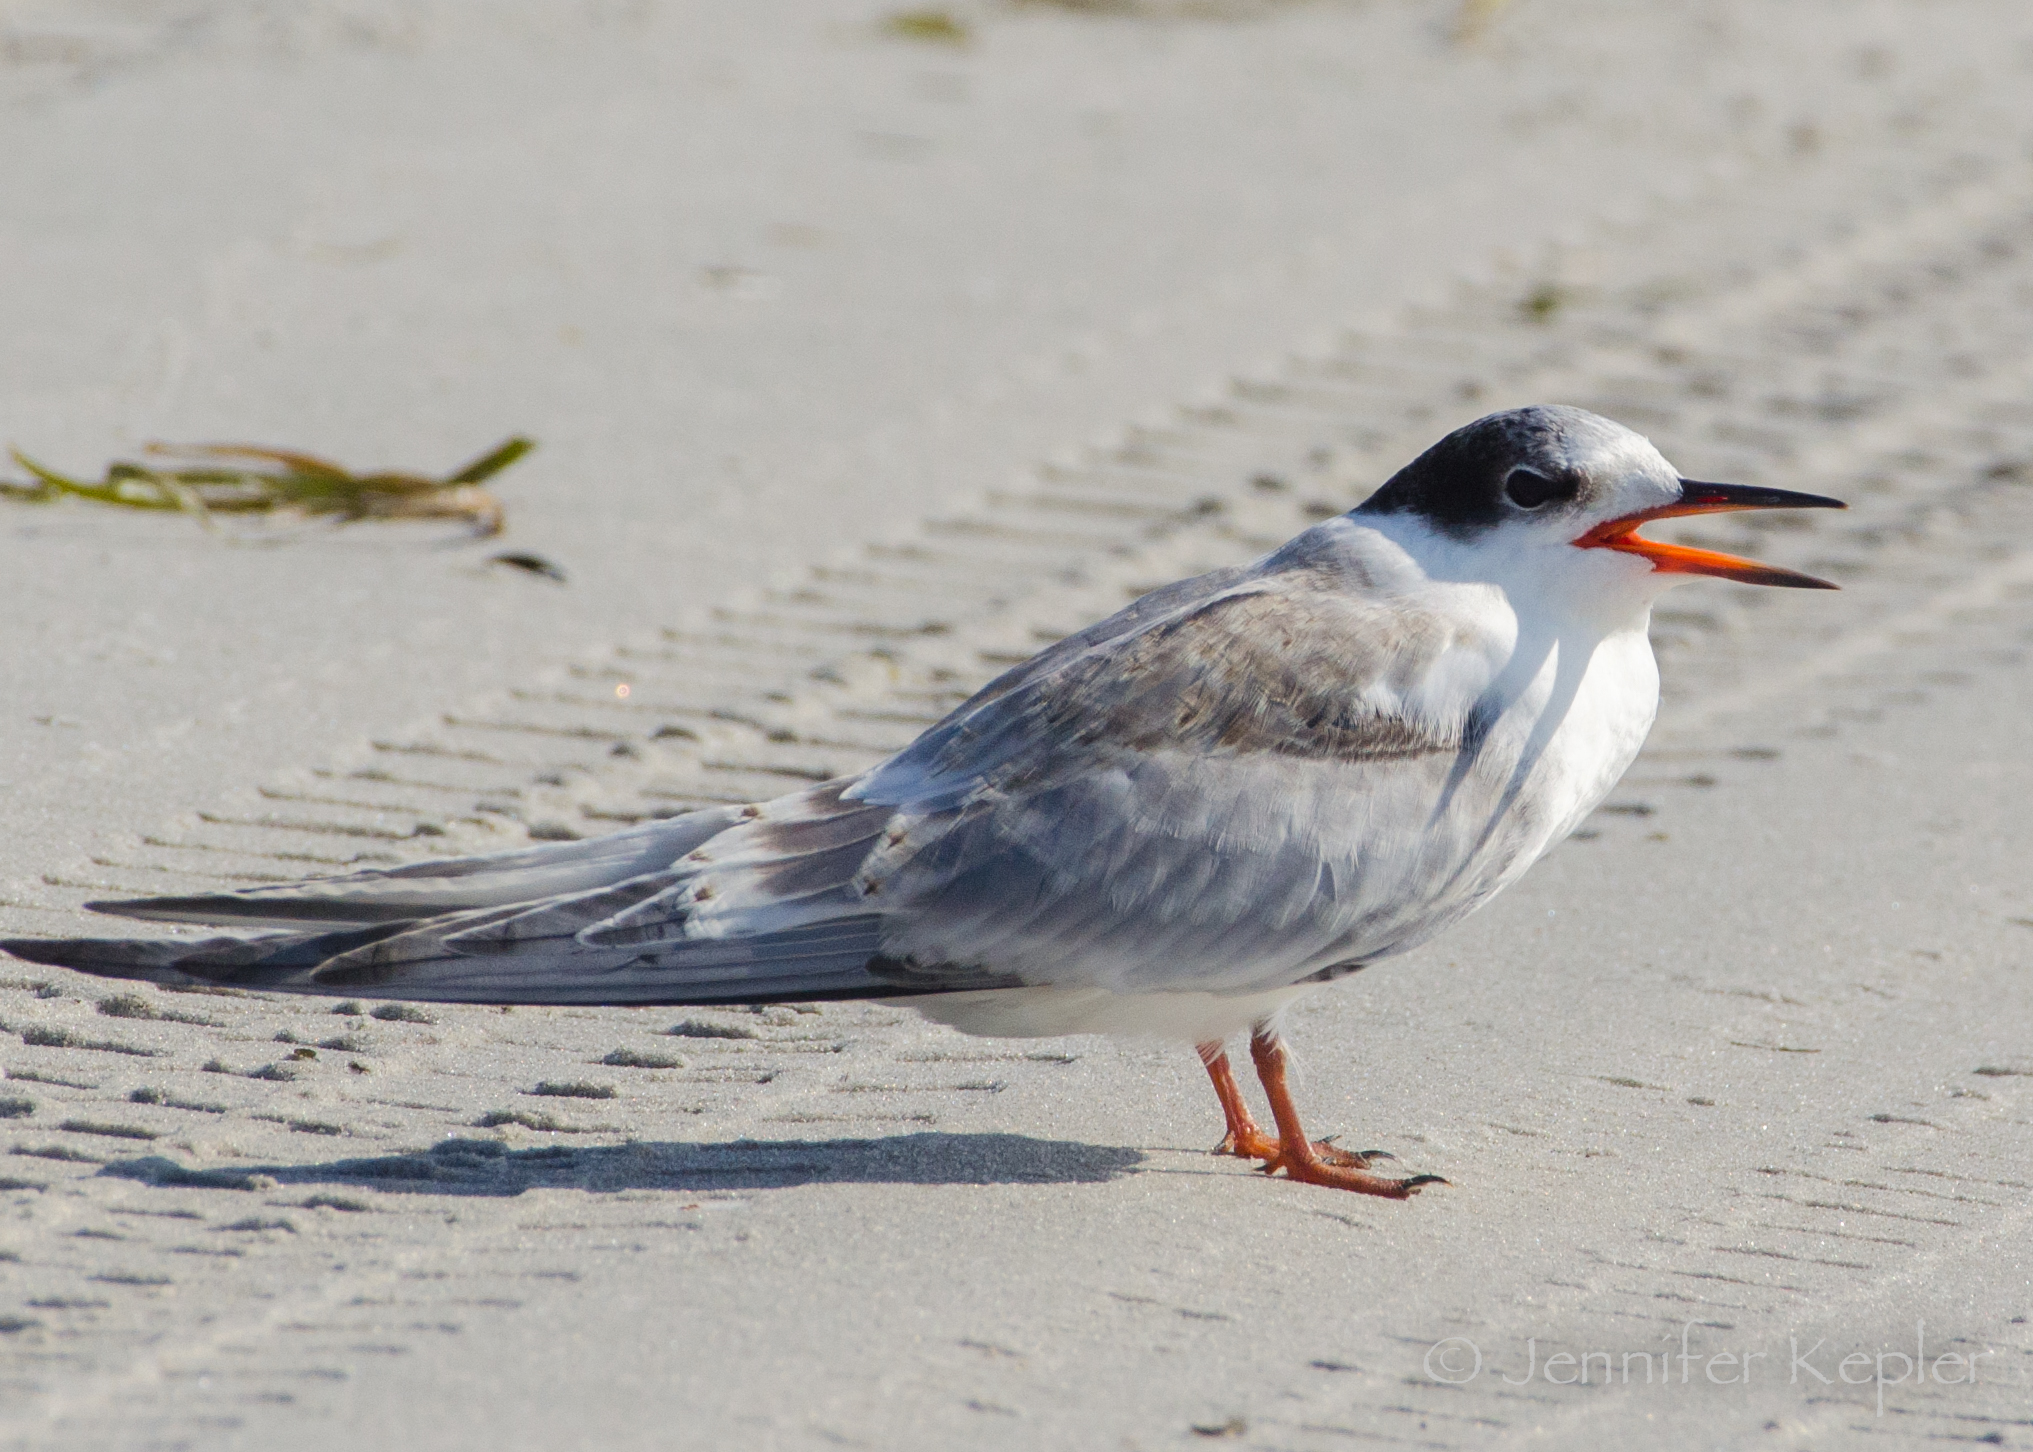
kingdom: Animalia
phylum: Chordata
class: Aves
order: Charadriiformes
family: Laridae
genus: Sterna
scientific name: Sterna hirundo
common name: Common tern
